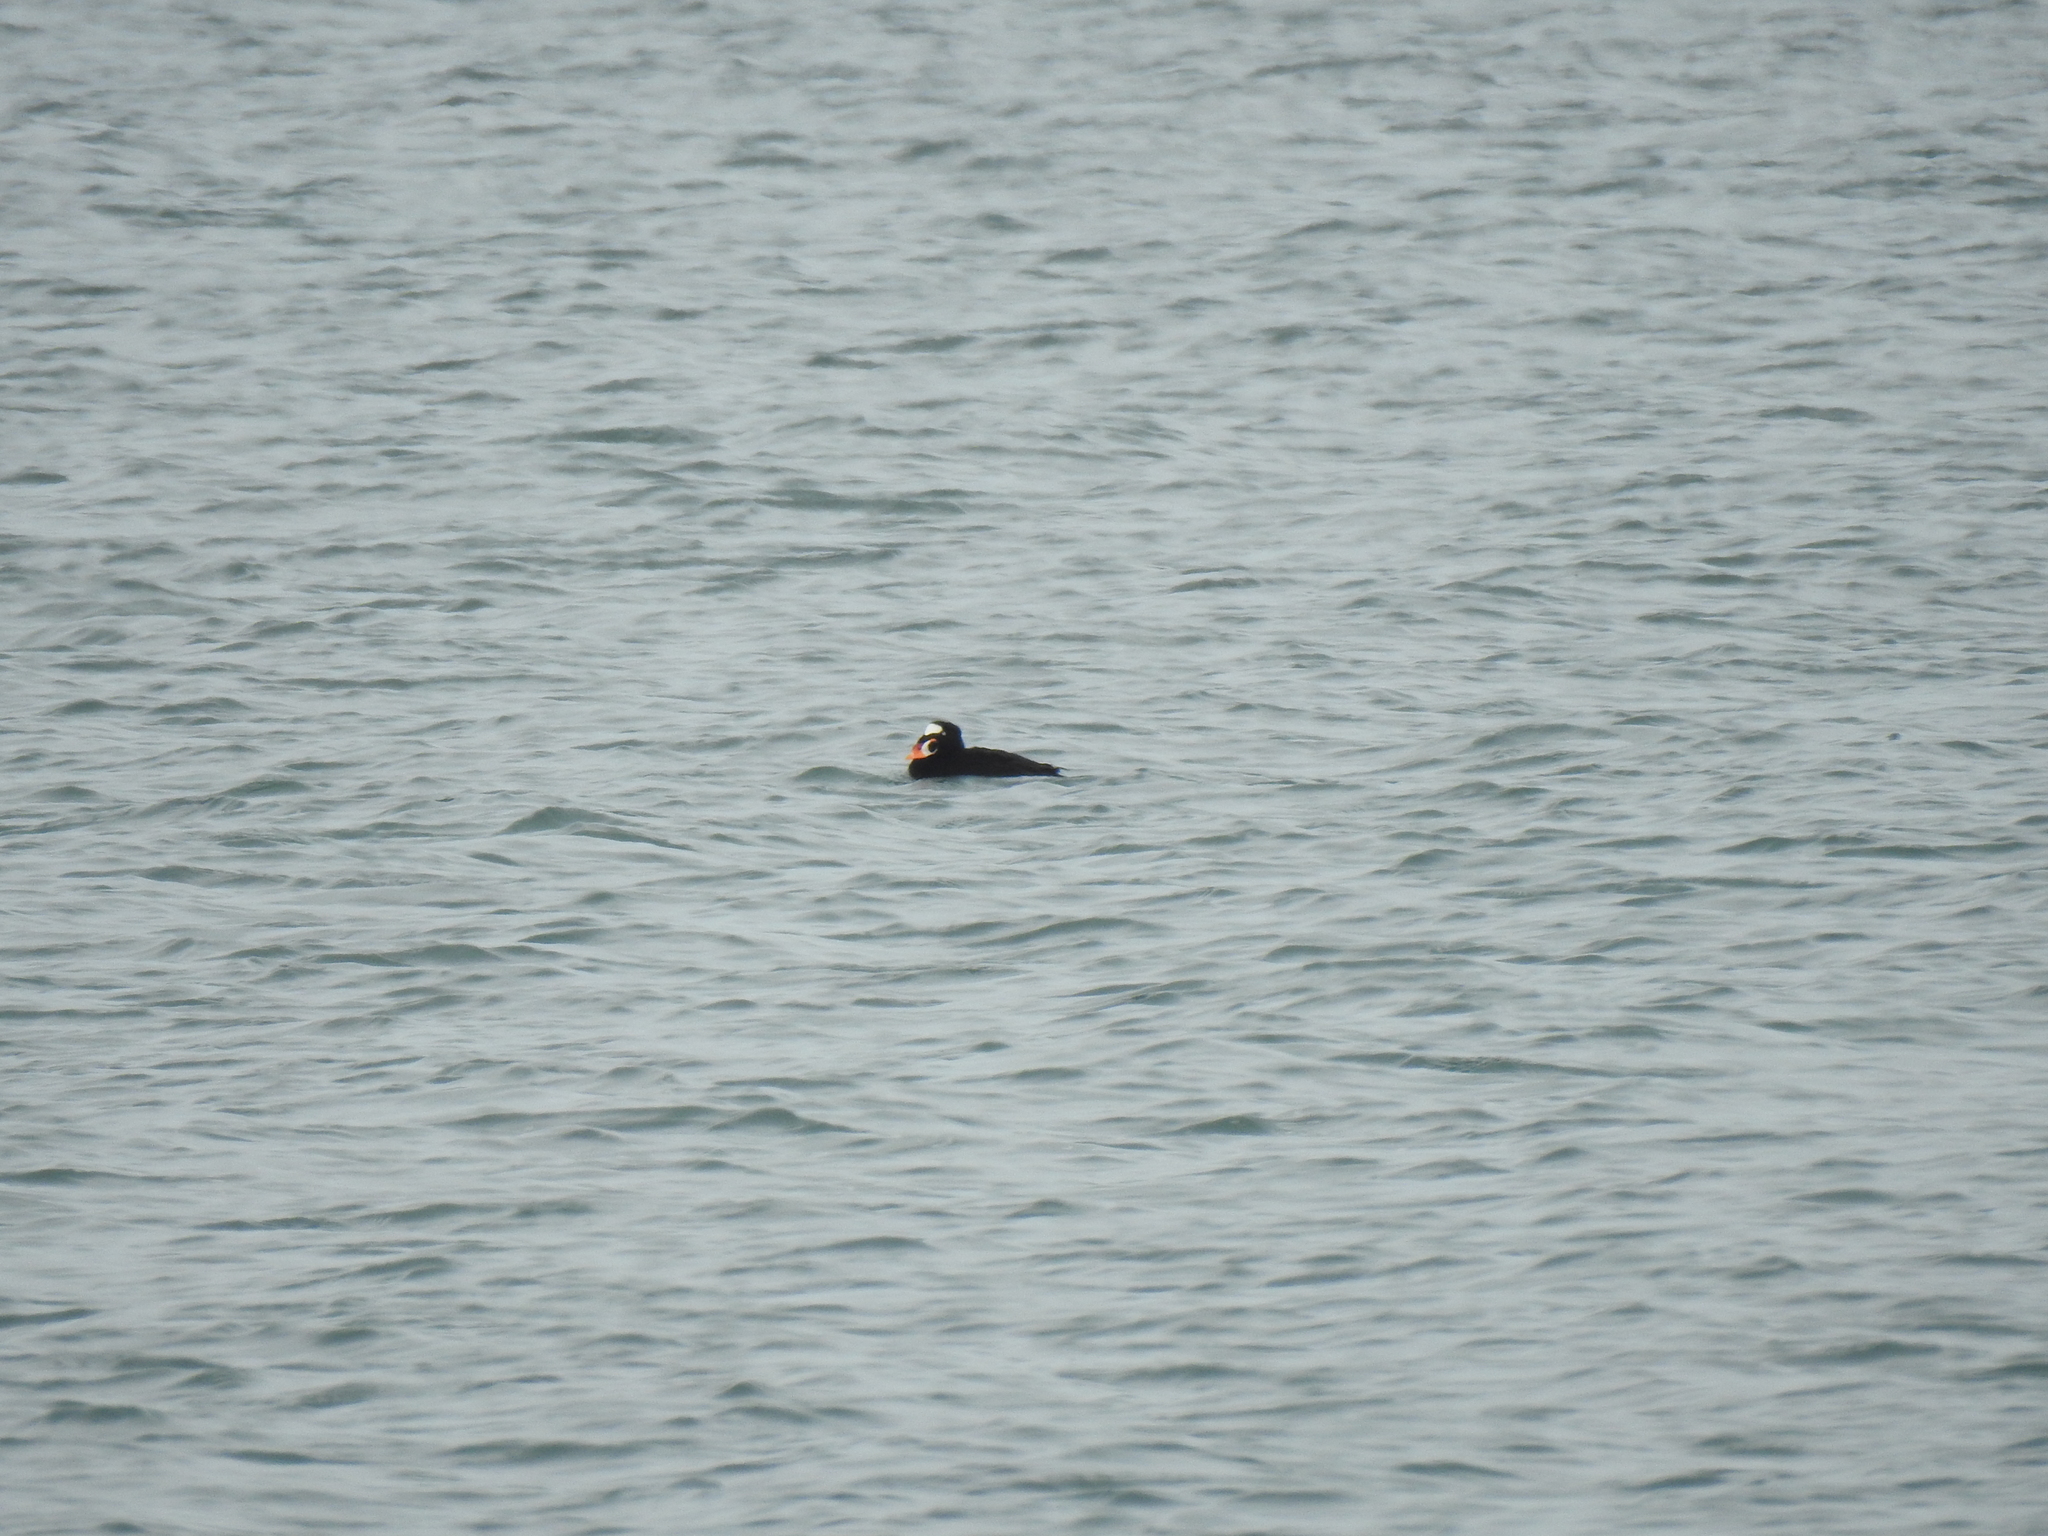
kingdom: Animalia
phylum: Chordata
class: Aves
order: Anseriformes
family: Anatidae
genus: Melanitta
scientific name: Melanitta perspicillata
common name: Surf scoter
